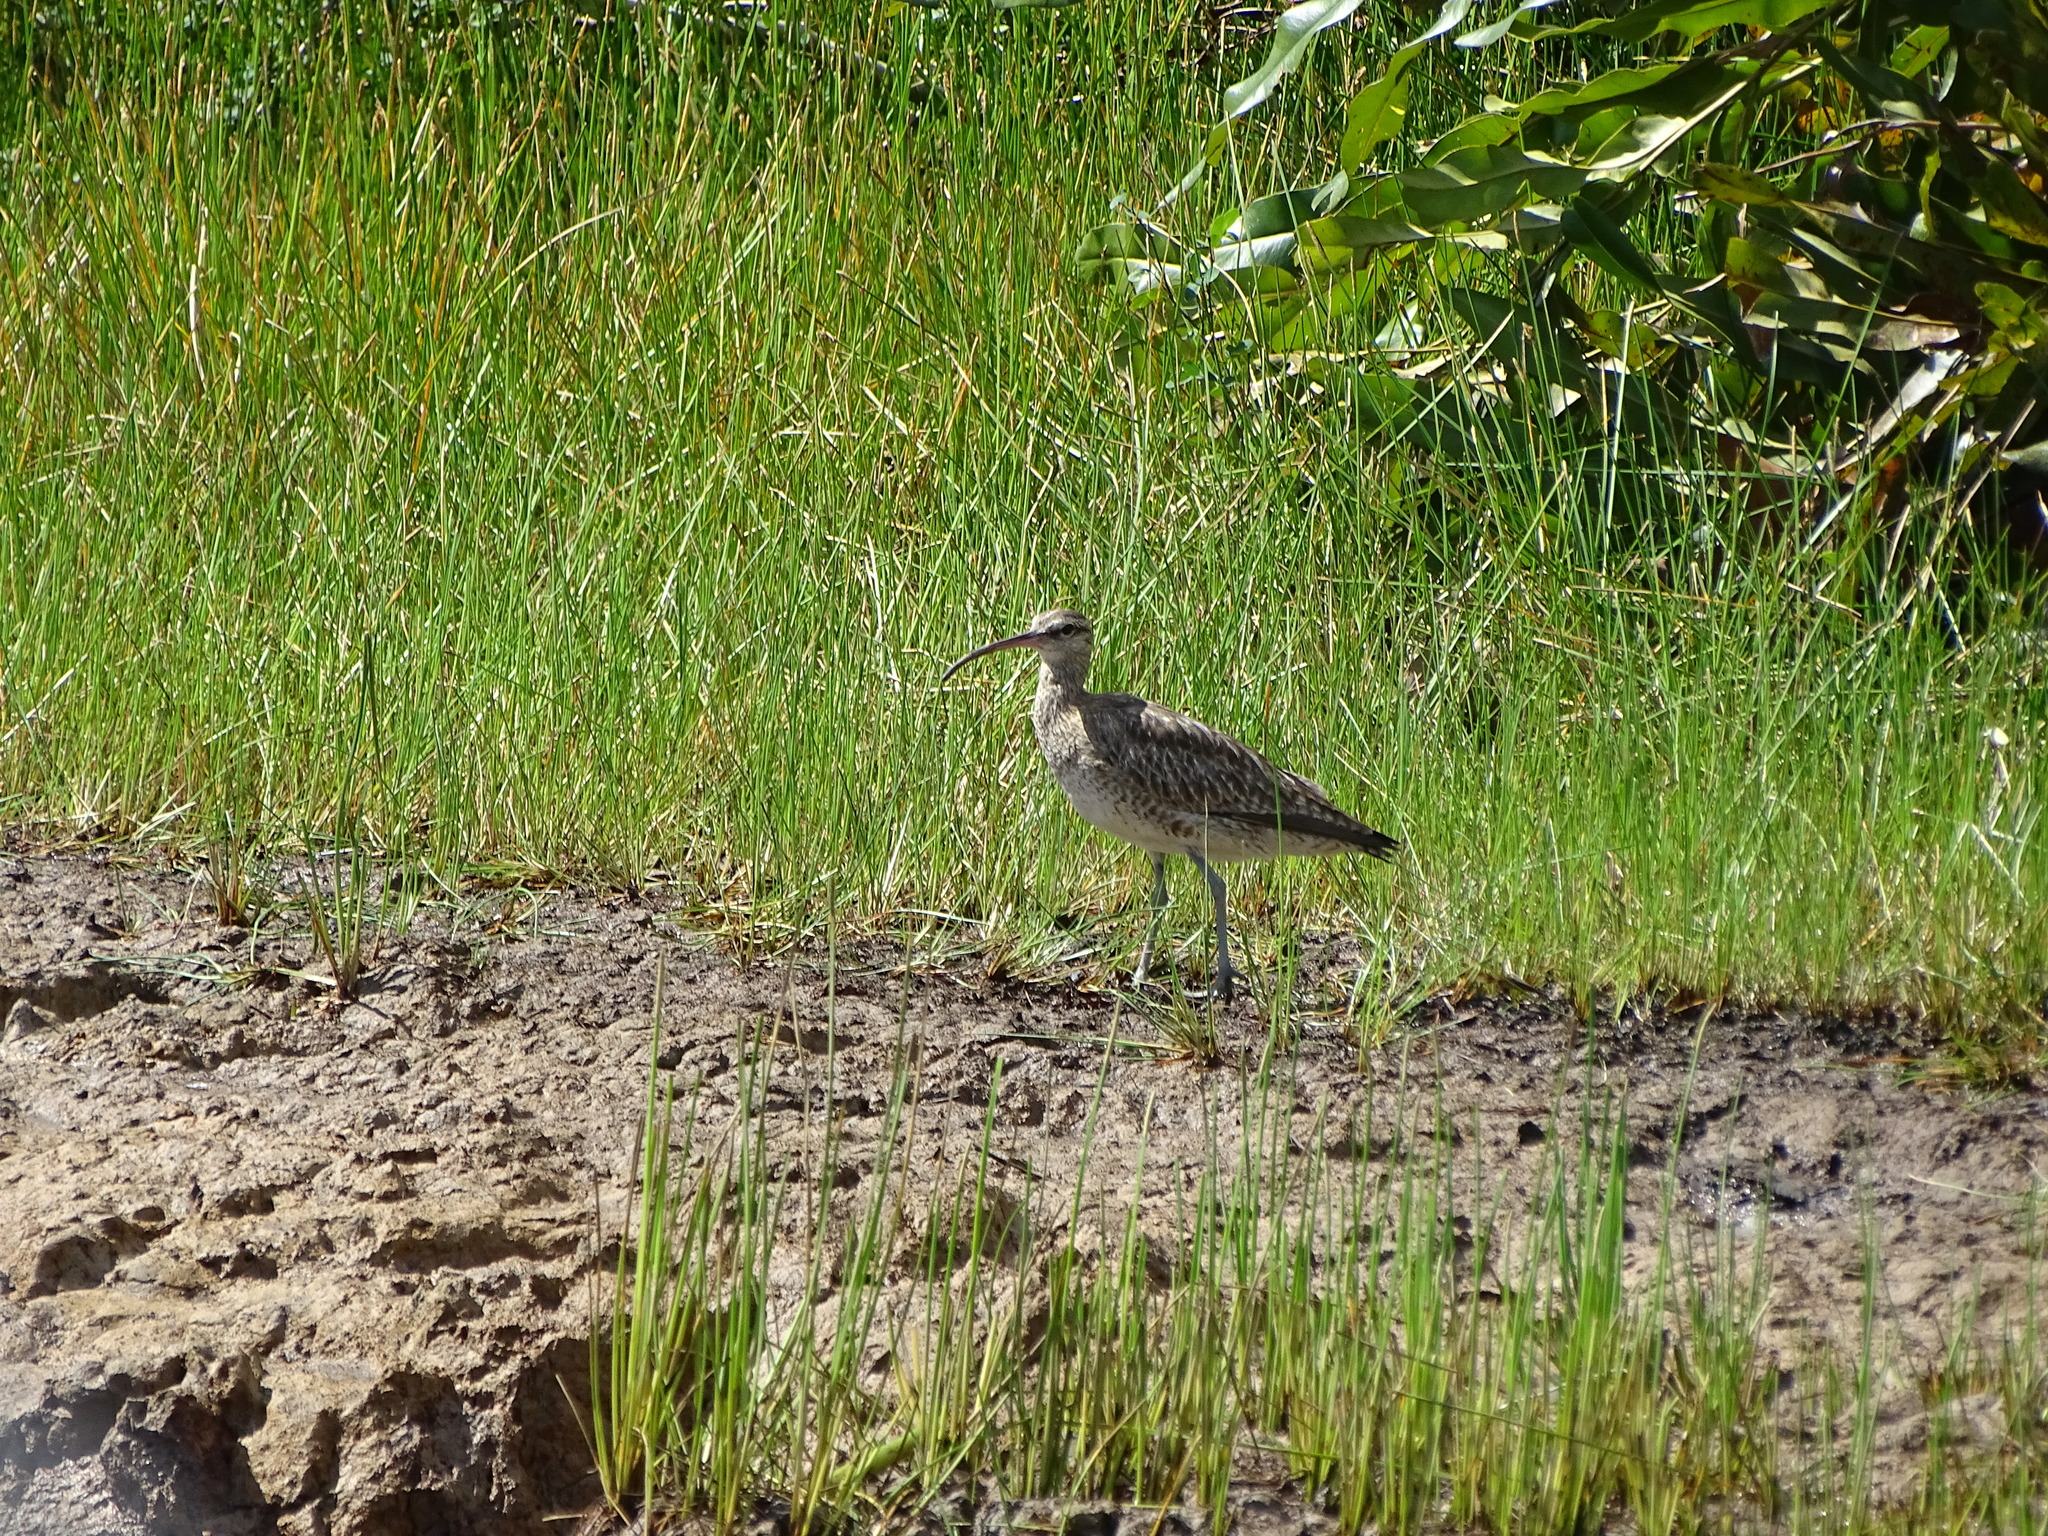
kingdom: Animalia
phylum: Chordata
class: Aves
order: Charadriiformes
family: Scolopacidae
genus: Numenius
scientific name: Numenius phaeopus
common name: Whimbrel
